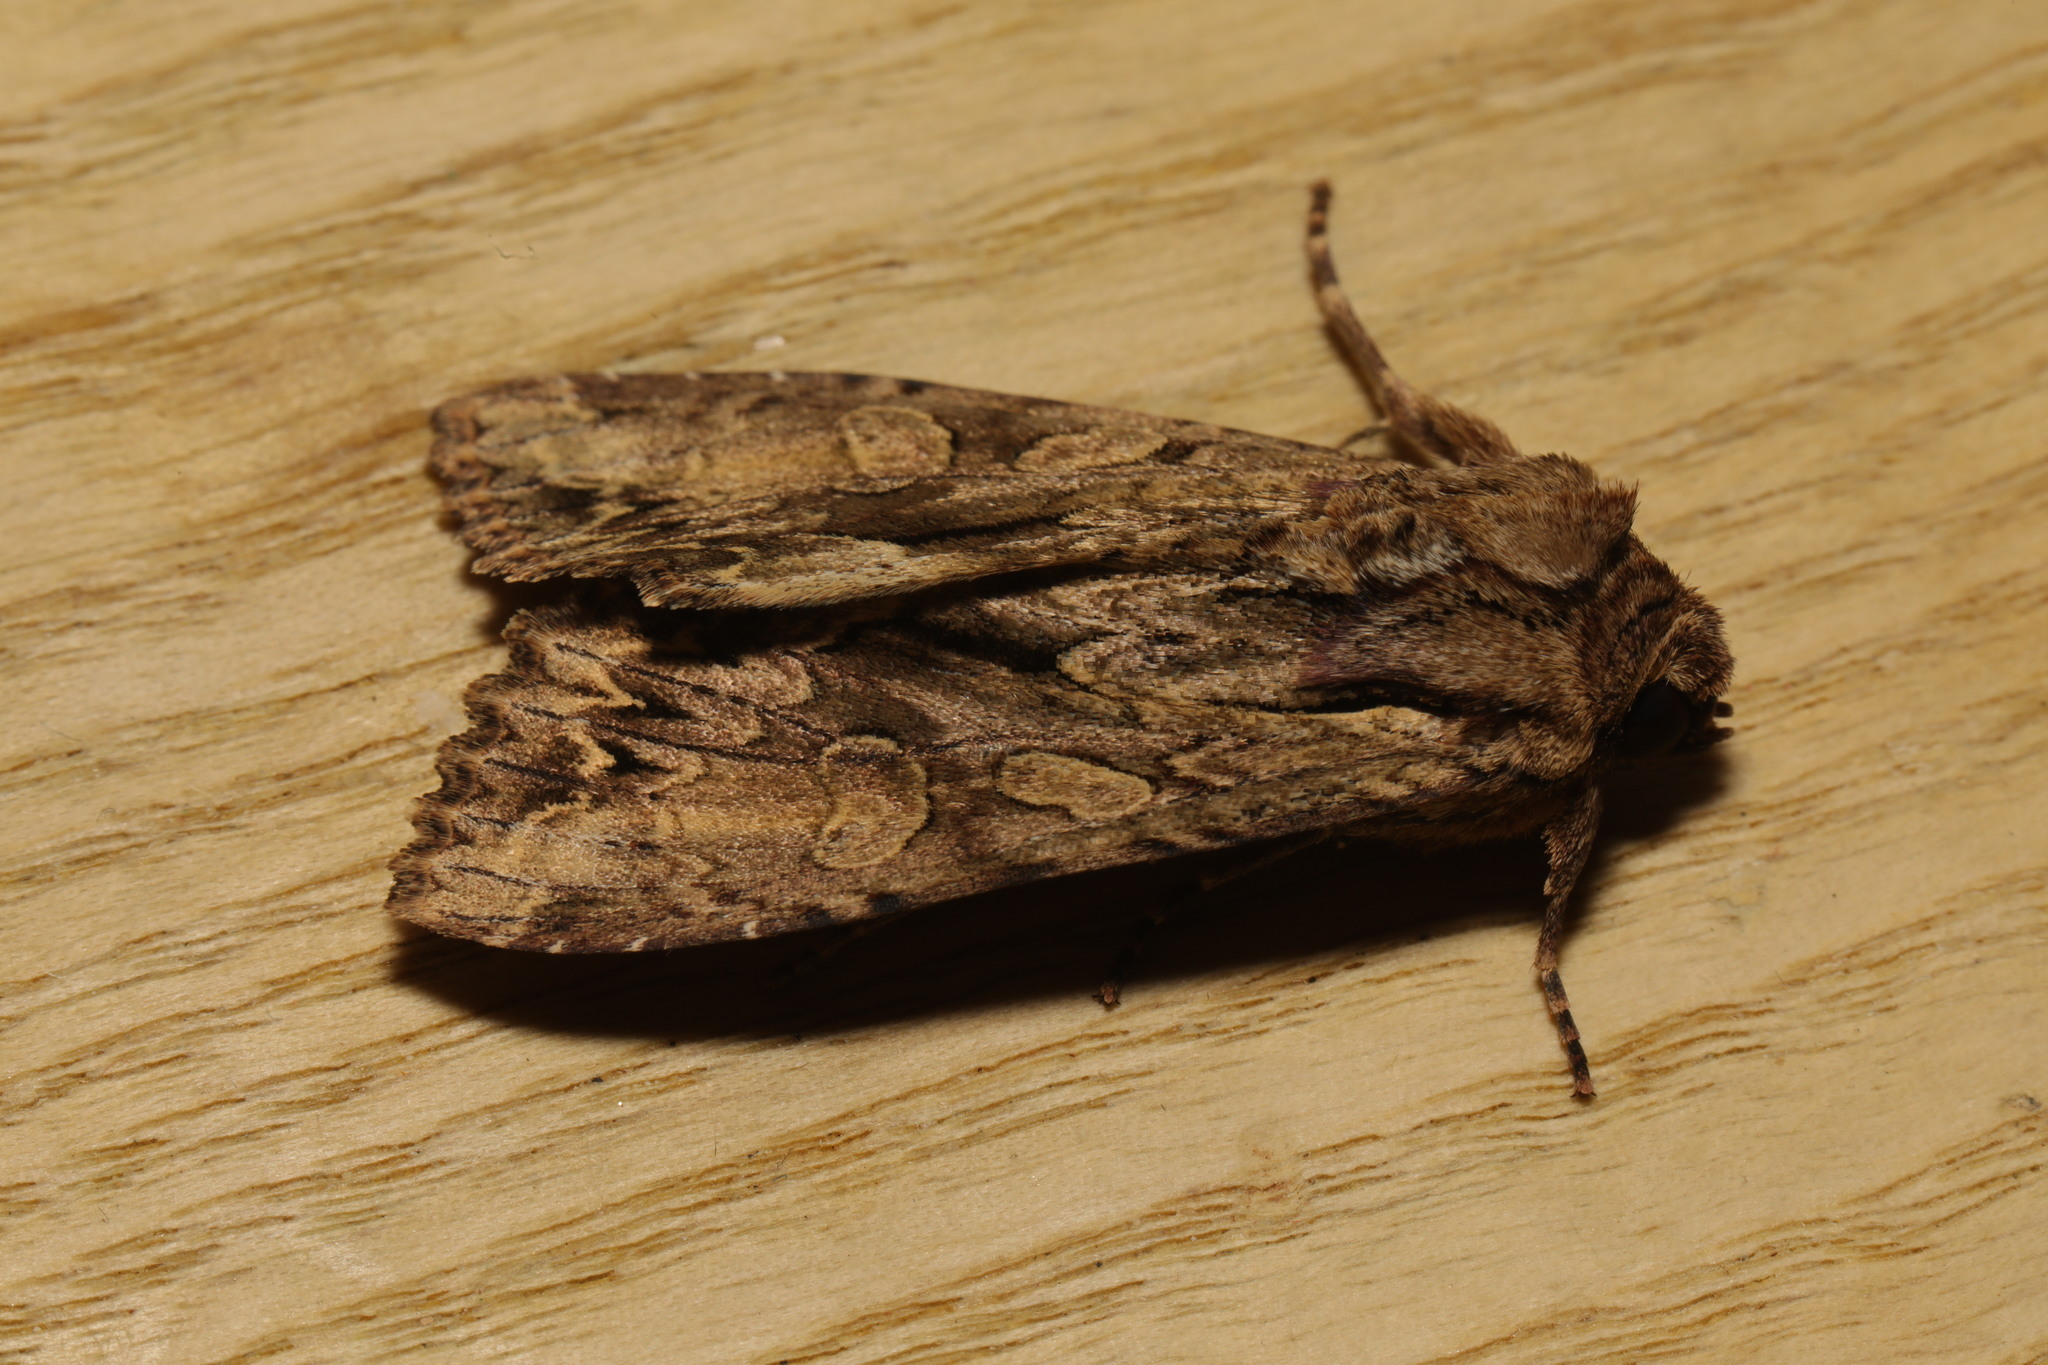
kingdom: Animalia
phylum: Arthropoda
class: Insecta
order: Lepidoptera
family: Noctuidae
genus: Apamea
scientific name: Apamea monoglypha
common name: Dark arches
